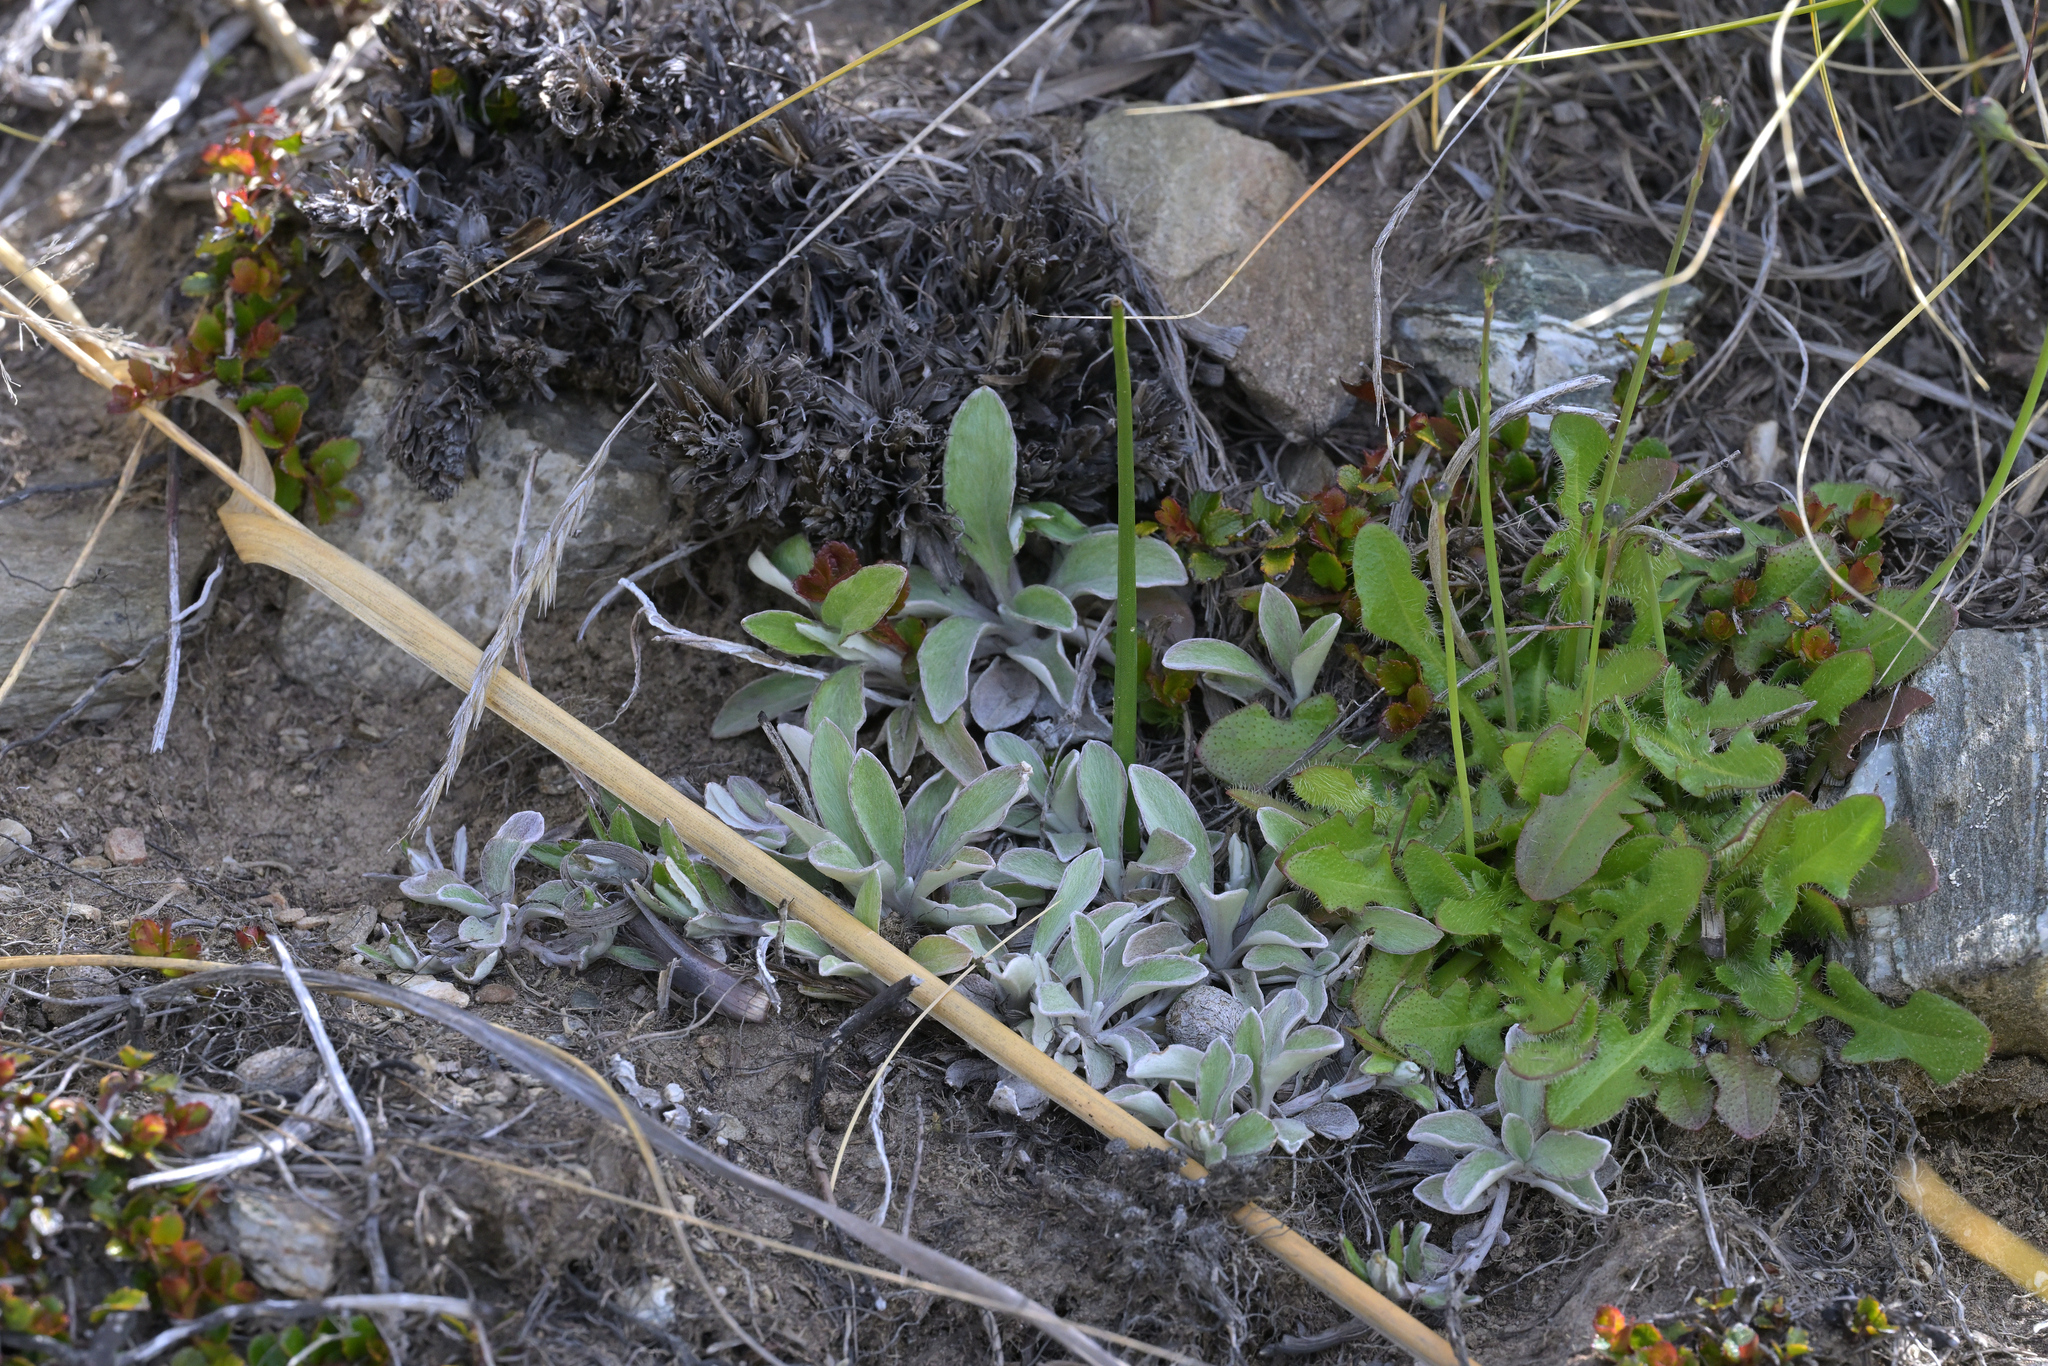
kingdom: Plantae
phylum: Tracheophyta
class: Magnoliopsida
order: Asterales
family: Asteraceae
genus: Euchiton
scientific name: Euchiton audax
